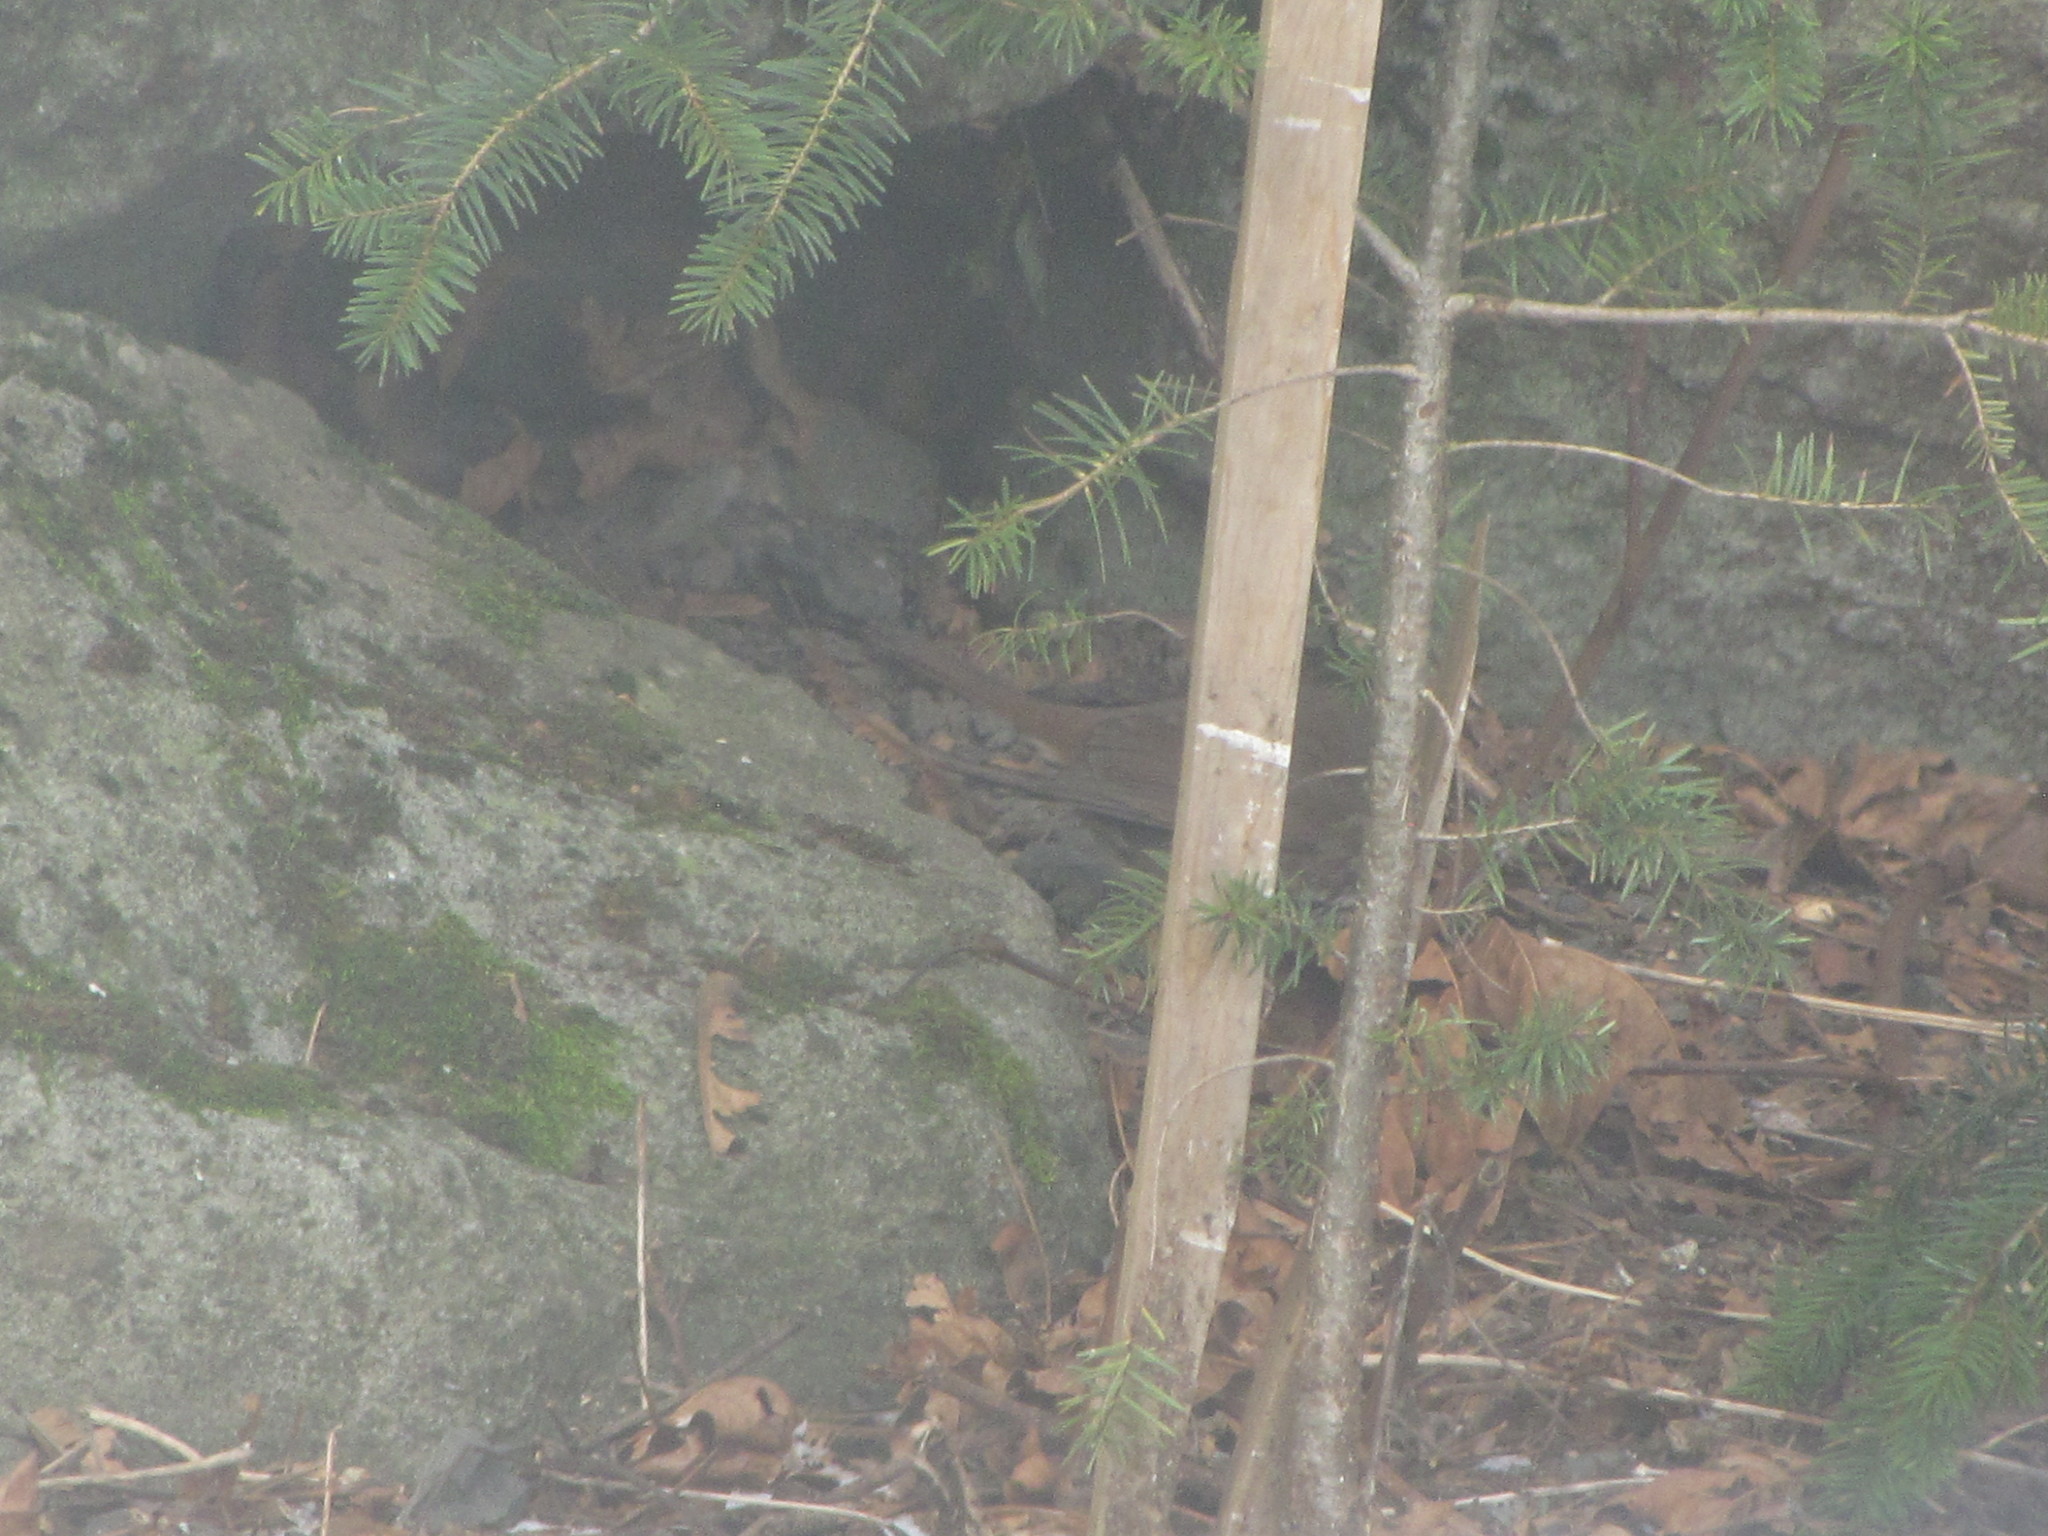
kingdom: Animalia
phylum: Chordata
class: Aves
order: Passeriformes
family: Passerellidae
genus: Passerella
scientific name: Passerella iliaca
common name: Fox sparrow
